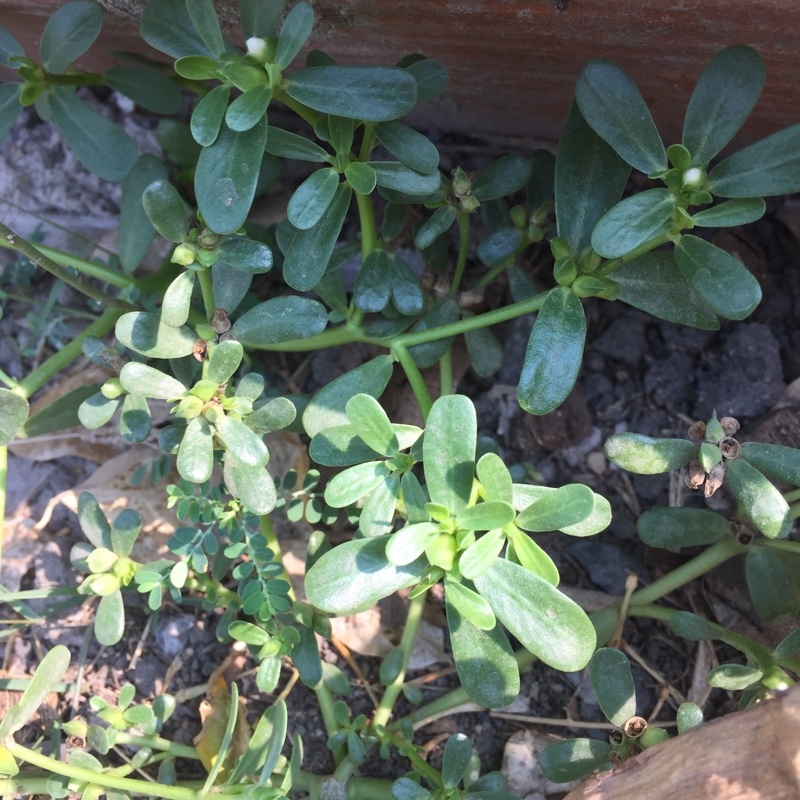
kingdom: Plantae
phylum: Tracheophyta
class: Magnoliopsida
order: Caryophyllales
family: Portulacaceae
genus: Portulaca
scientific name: Portulaca oleracea
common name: Common purslane
